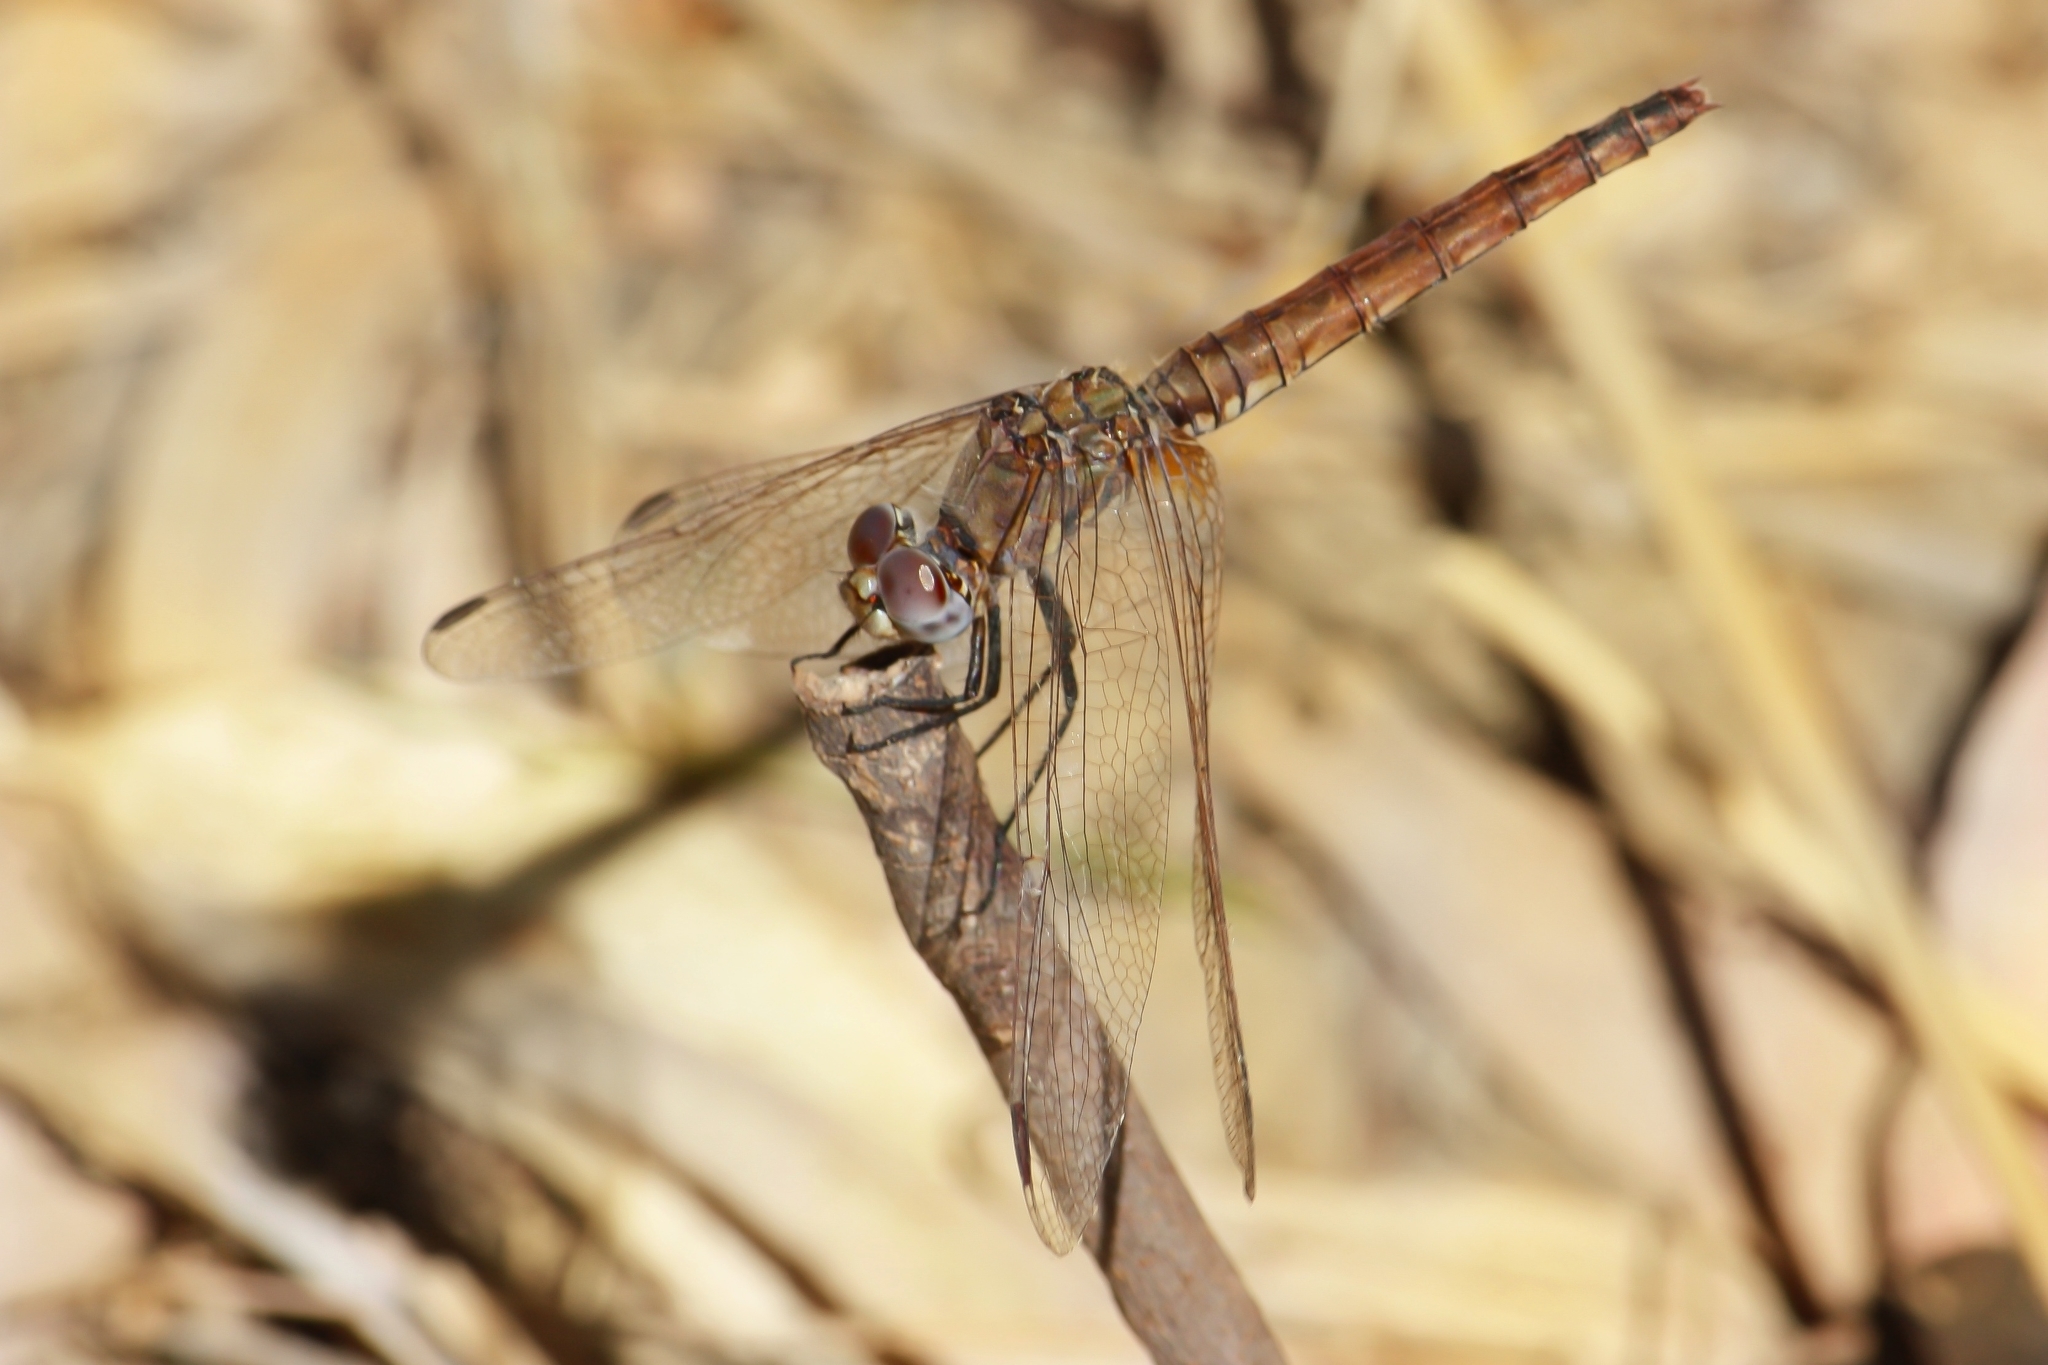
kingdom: Animalia
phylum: Arthropoda
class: Insecta
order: Odonata
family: Libellulidae
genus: Trithemis
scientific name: Trithemis annulata
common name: Violet dropwing
